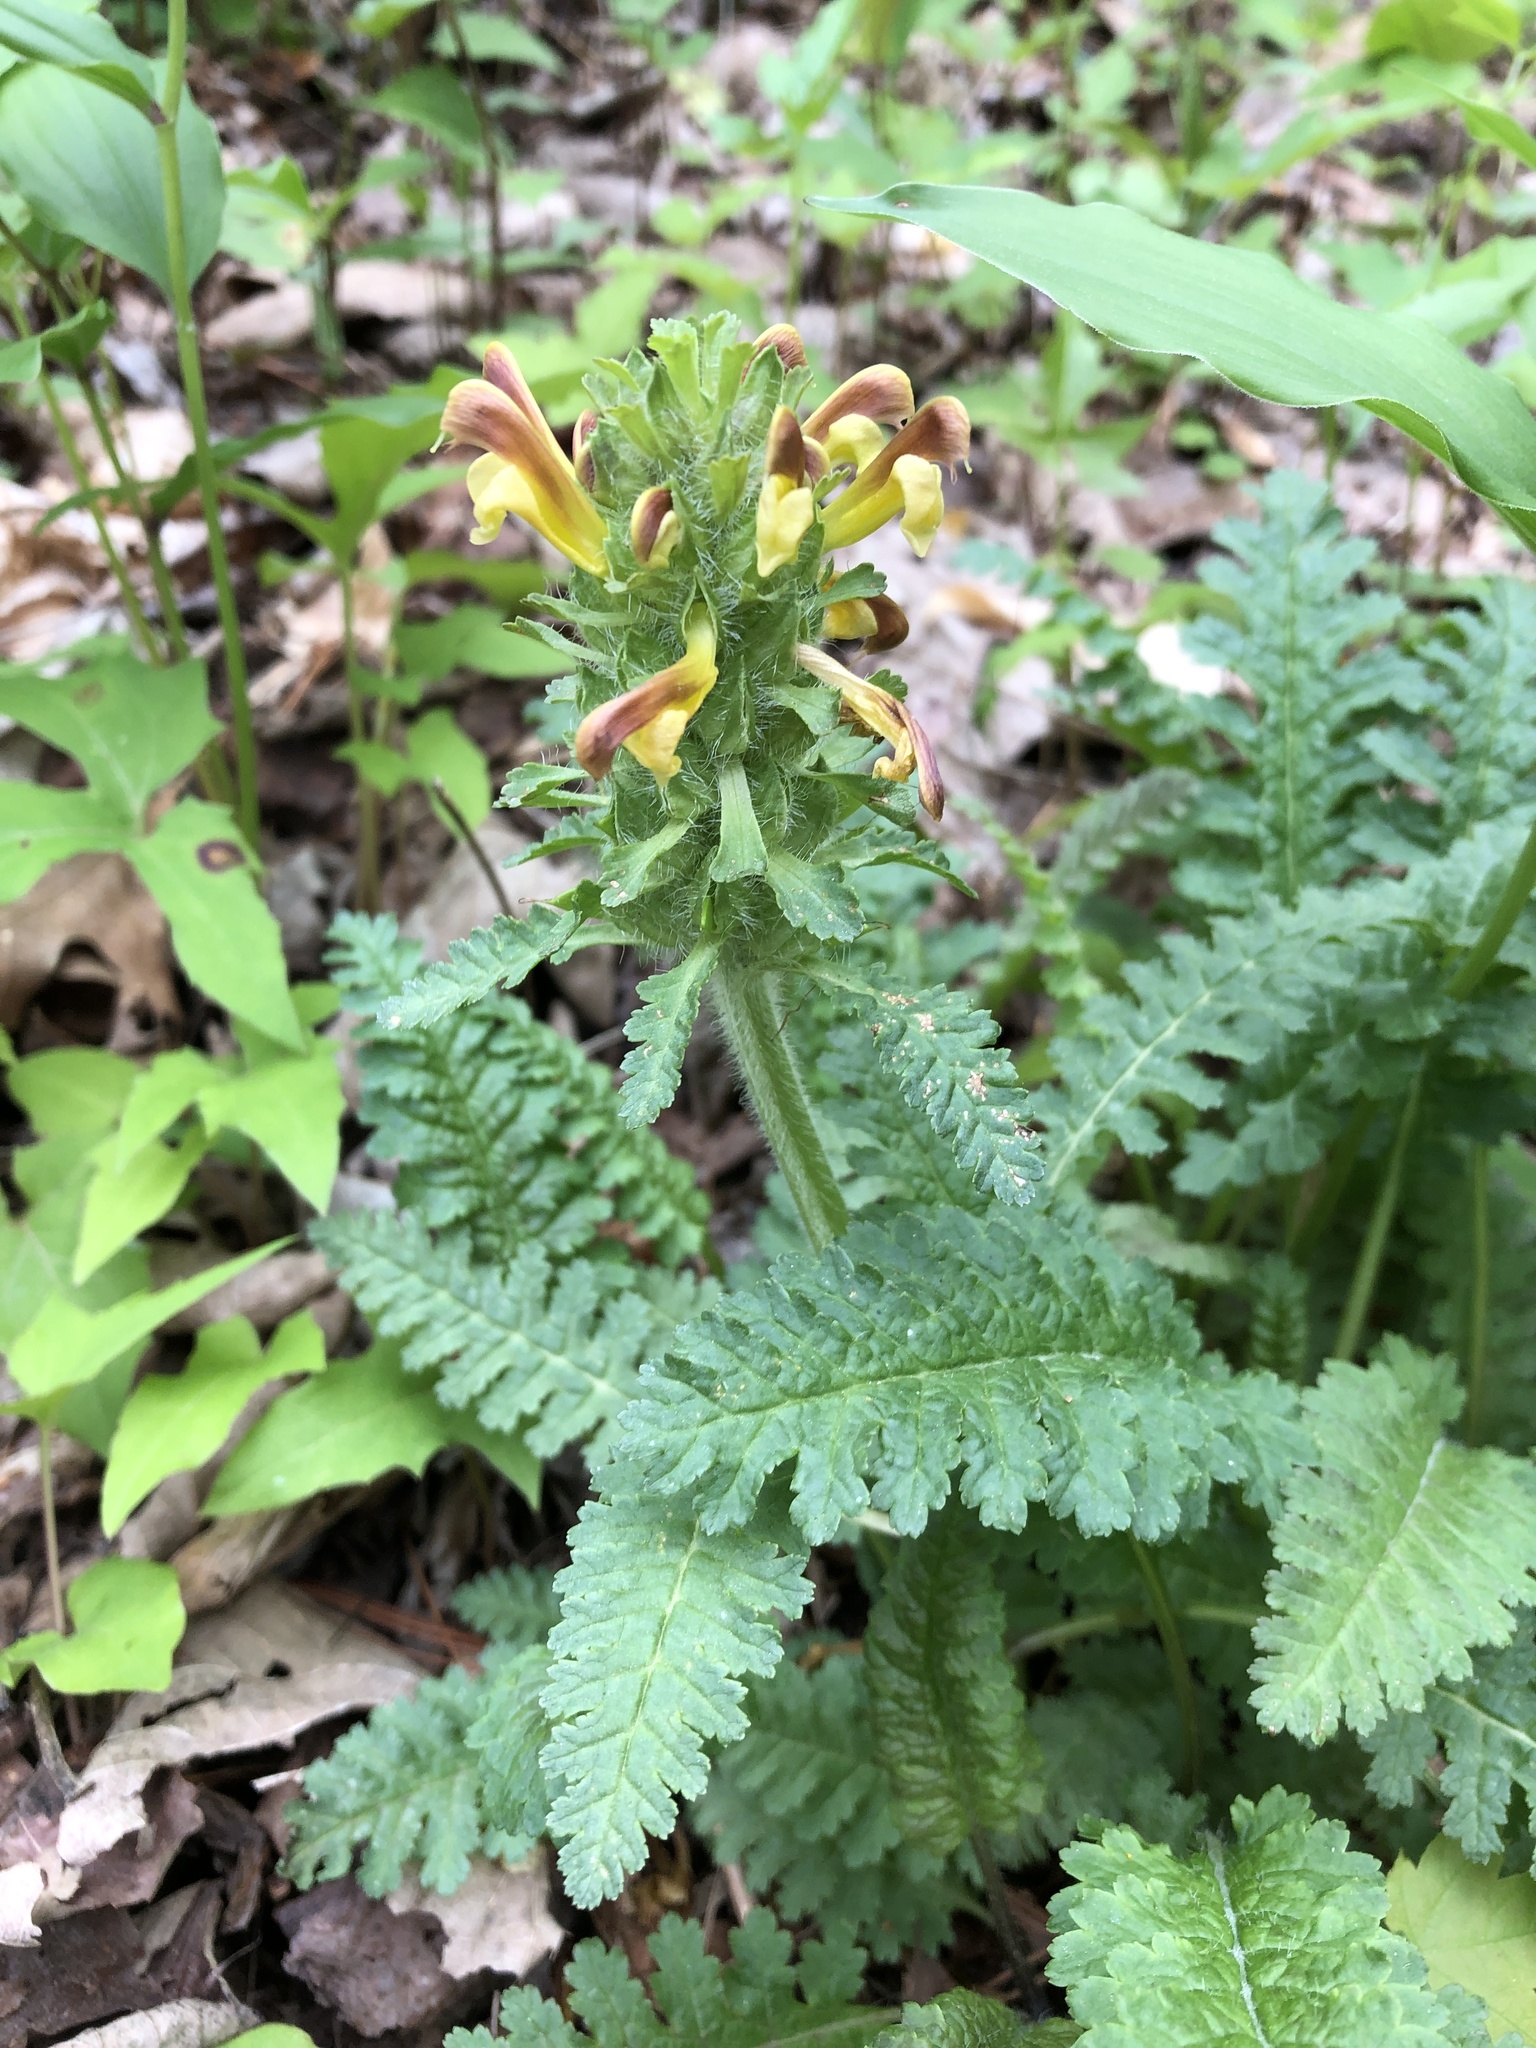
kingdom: Plantae
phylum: Tracheophyta
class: Magnoliopsida
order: Lamiales
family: Orobanchaceae
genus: Pedicularis
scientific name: Pedicularis canadensis
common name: Early lousewort
